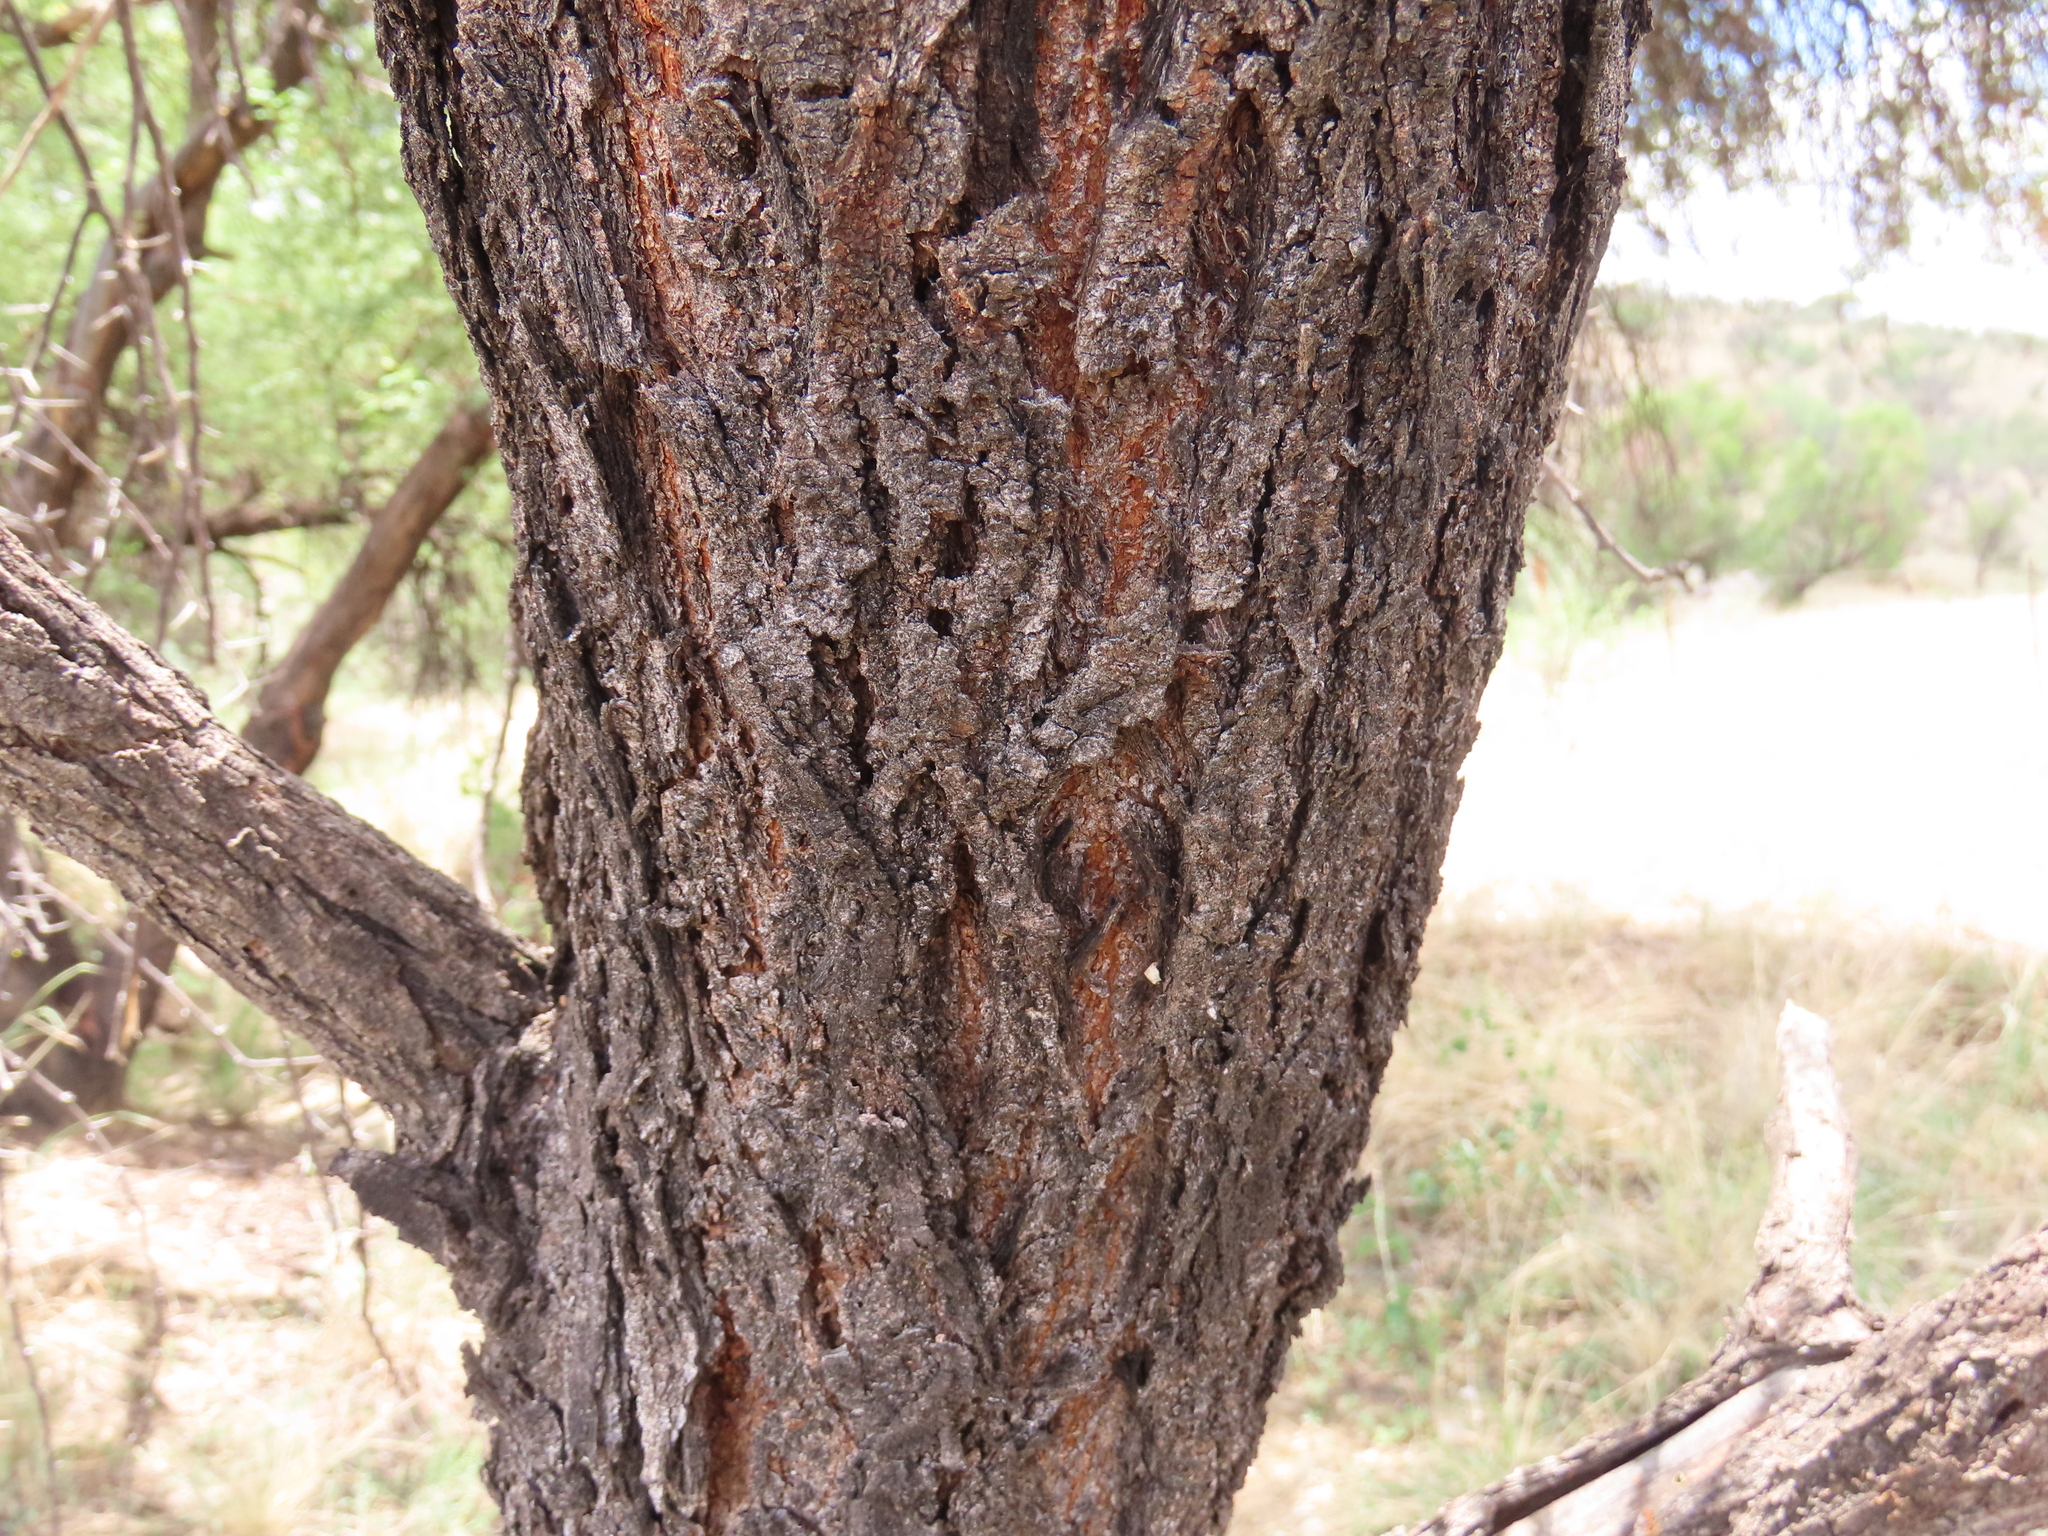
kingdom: Plantae
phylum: Tracheophyta
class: Magnoliopsida
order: Fabales
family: Fabaceae
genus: Vachellia
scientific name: Vachellia karroo
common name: Sweet thorn
